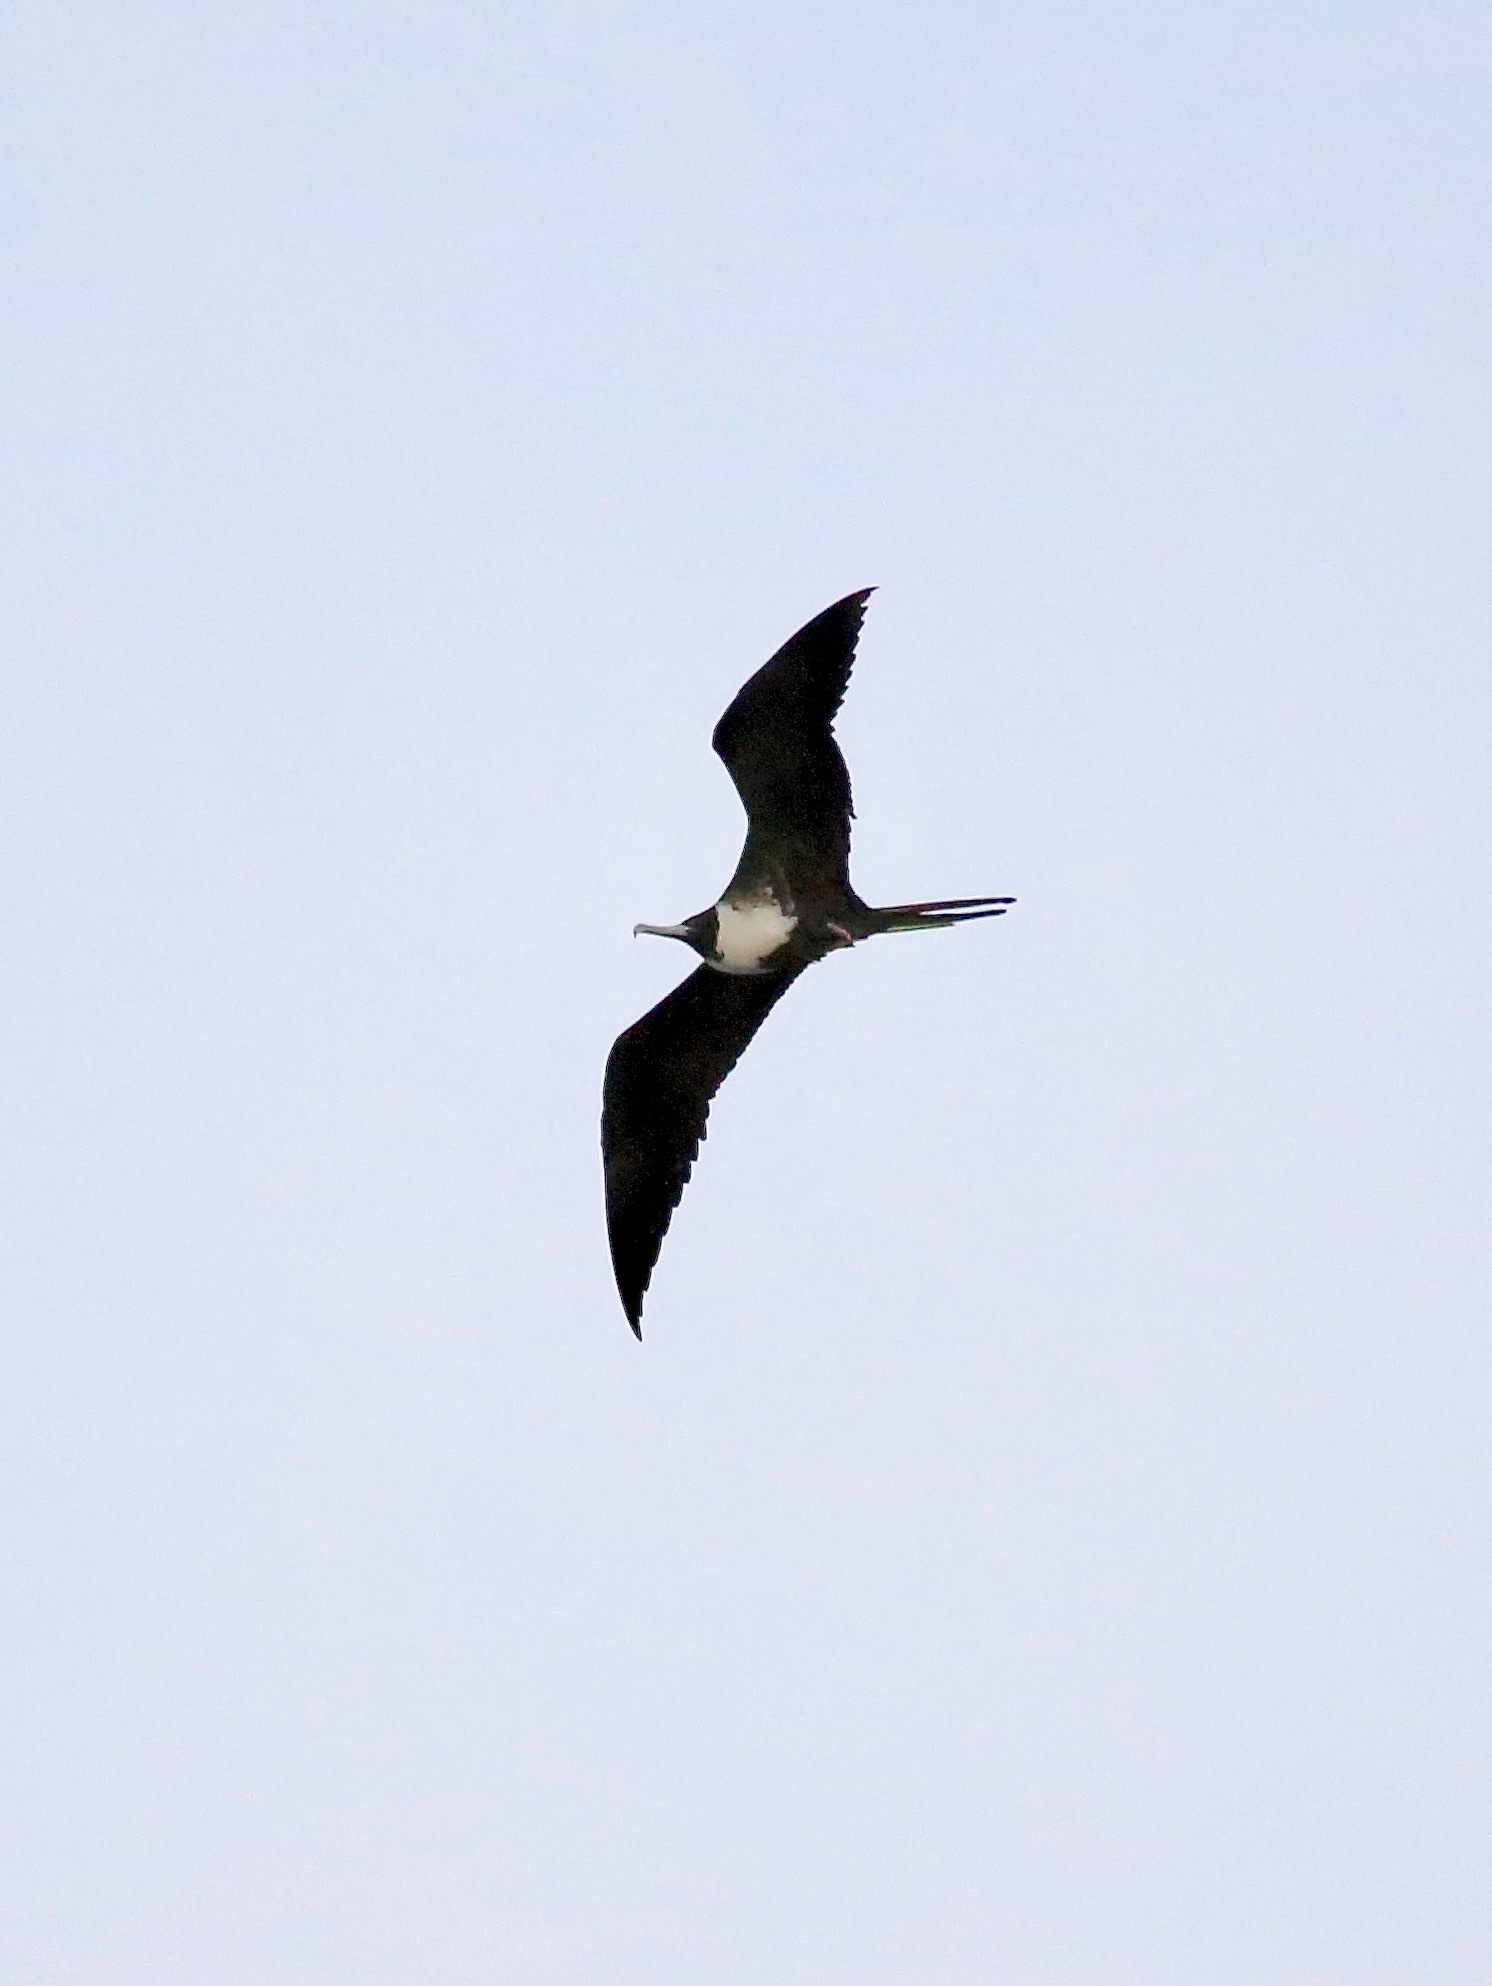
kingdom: Animalia
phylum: Chordata
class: Aves
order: Suliformes
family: Fregatidae
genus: Fregata
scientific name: Fregata magnificens
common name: Magnificent frigatebird
